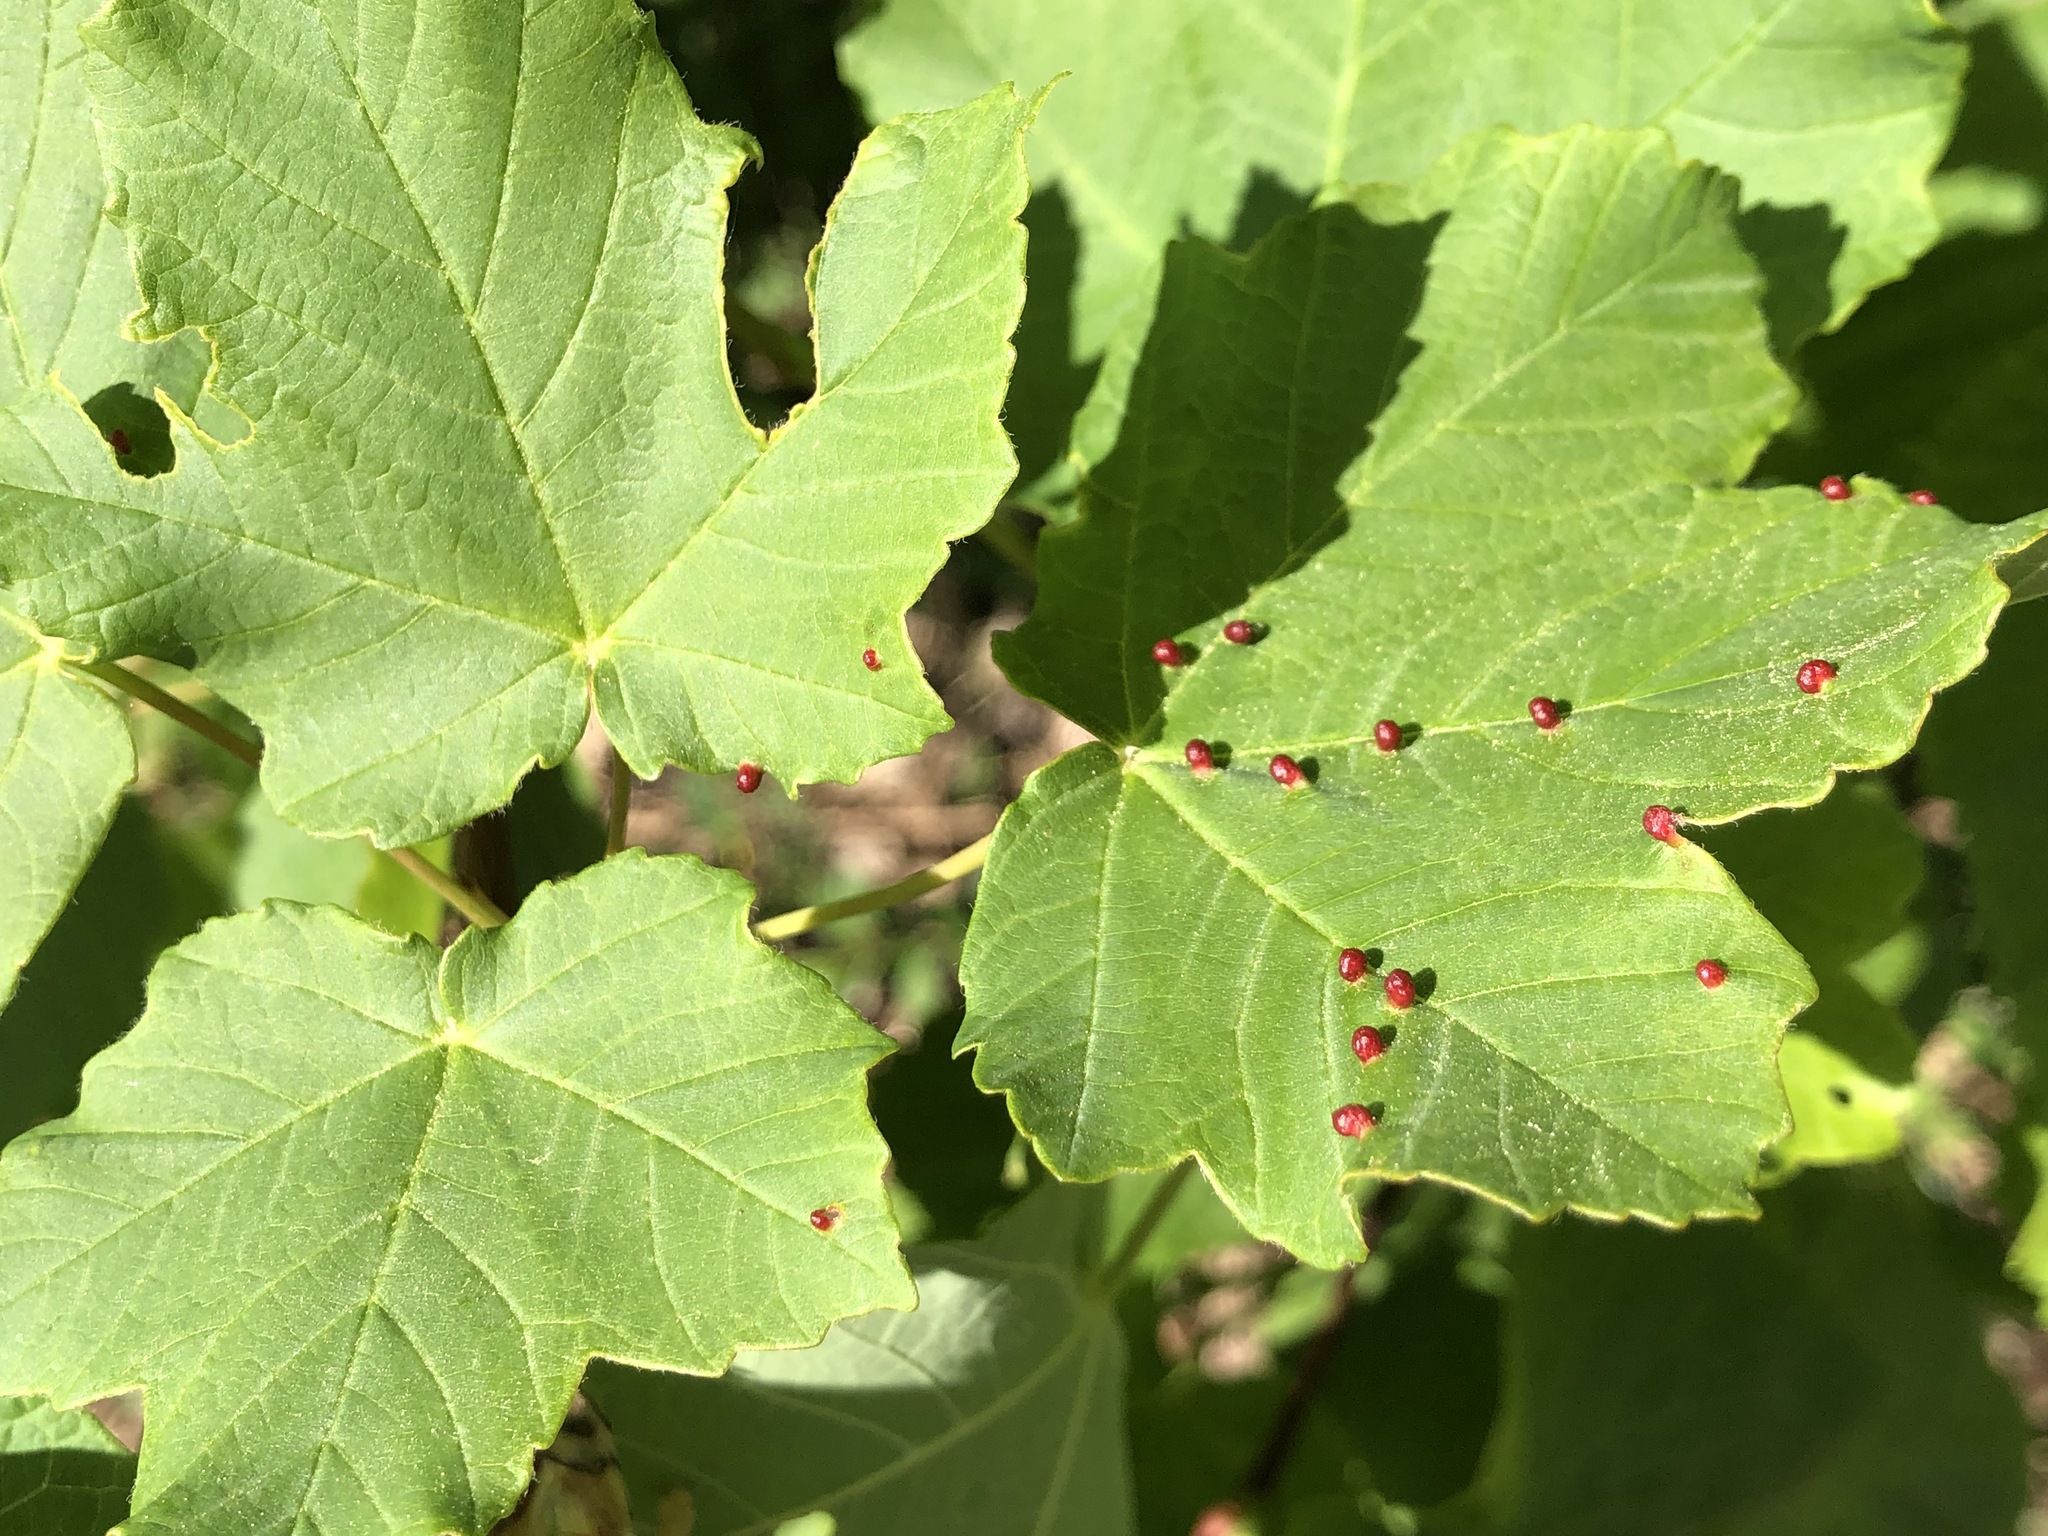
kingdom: Animalia
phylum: Arthropoda
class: Arachnida
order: Trombidiformes
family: Eriophyidae
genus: Aceria
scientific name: Aceria opulifolii
